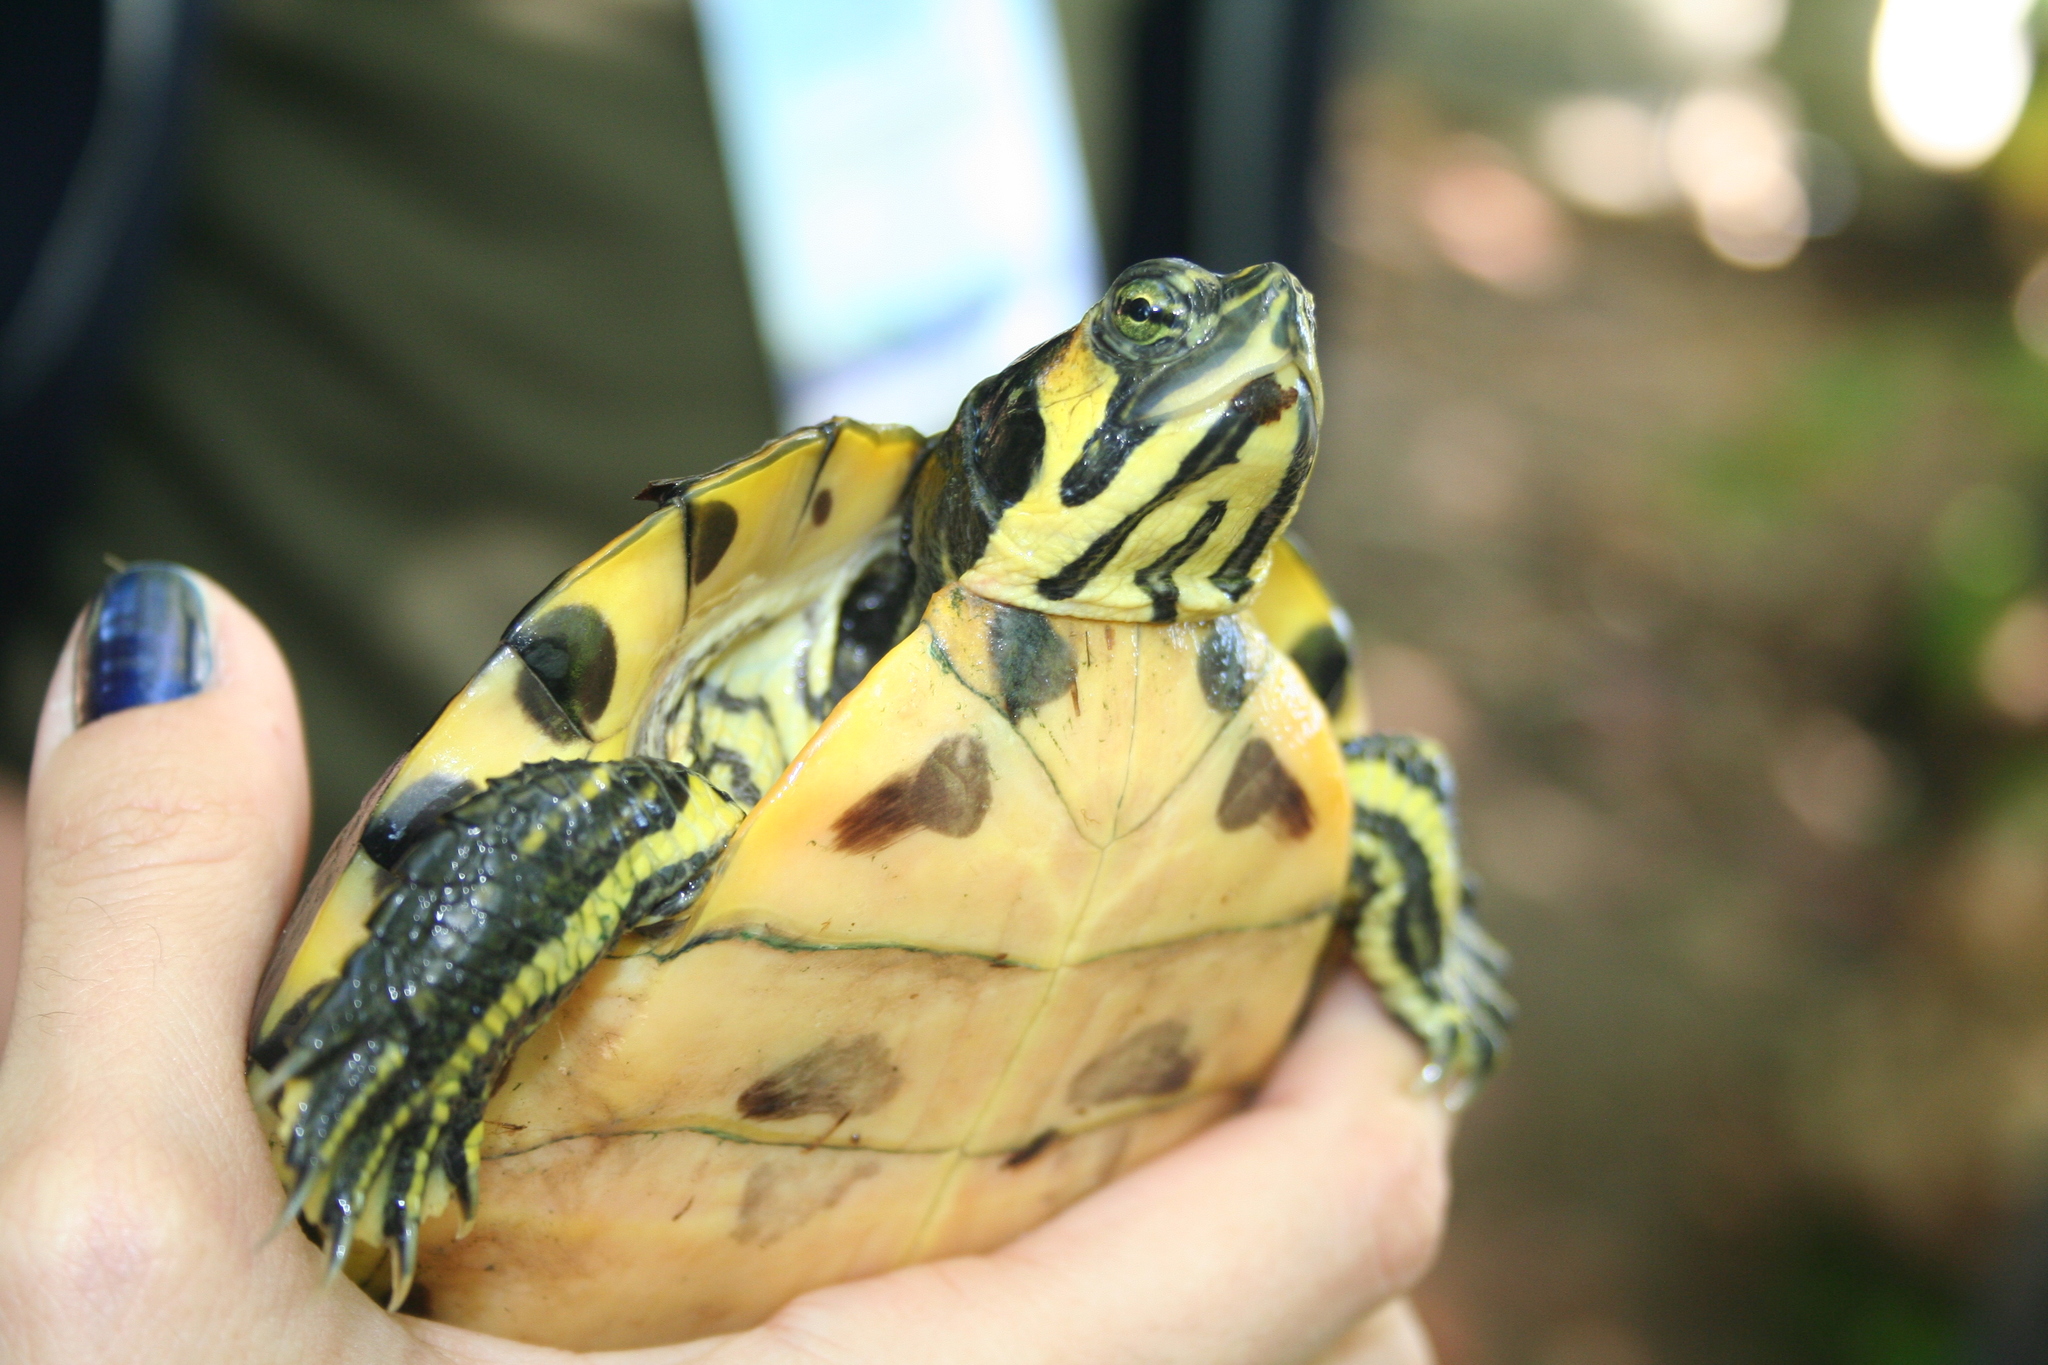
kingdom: Animalia
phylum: Chordata
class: Testudines
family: Emydidae
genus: Trachemys
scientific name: Trachemys scripta
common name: Slider
